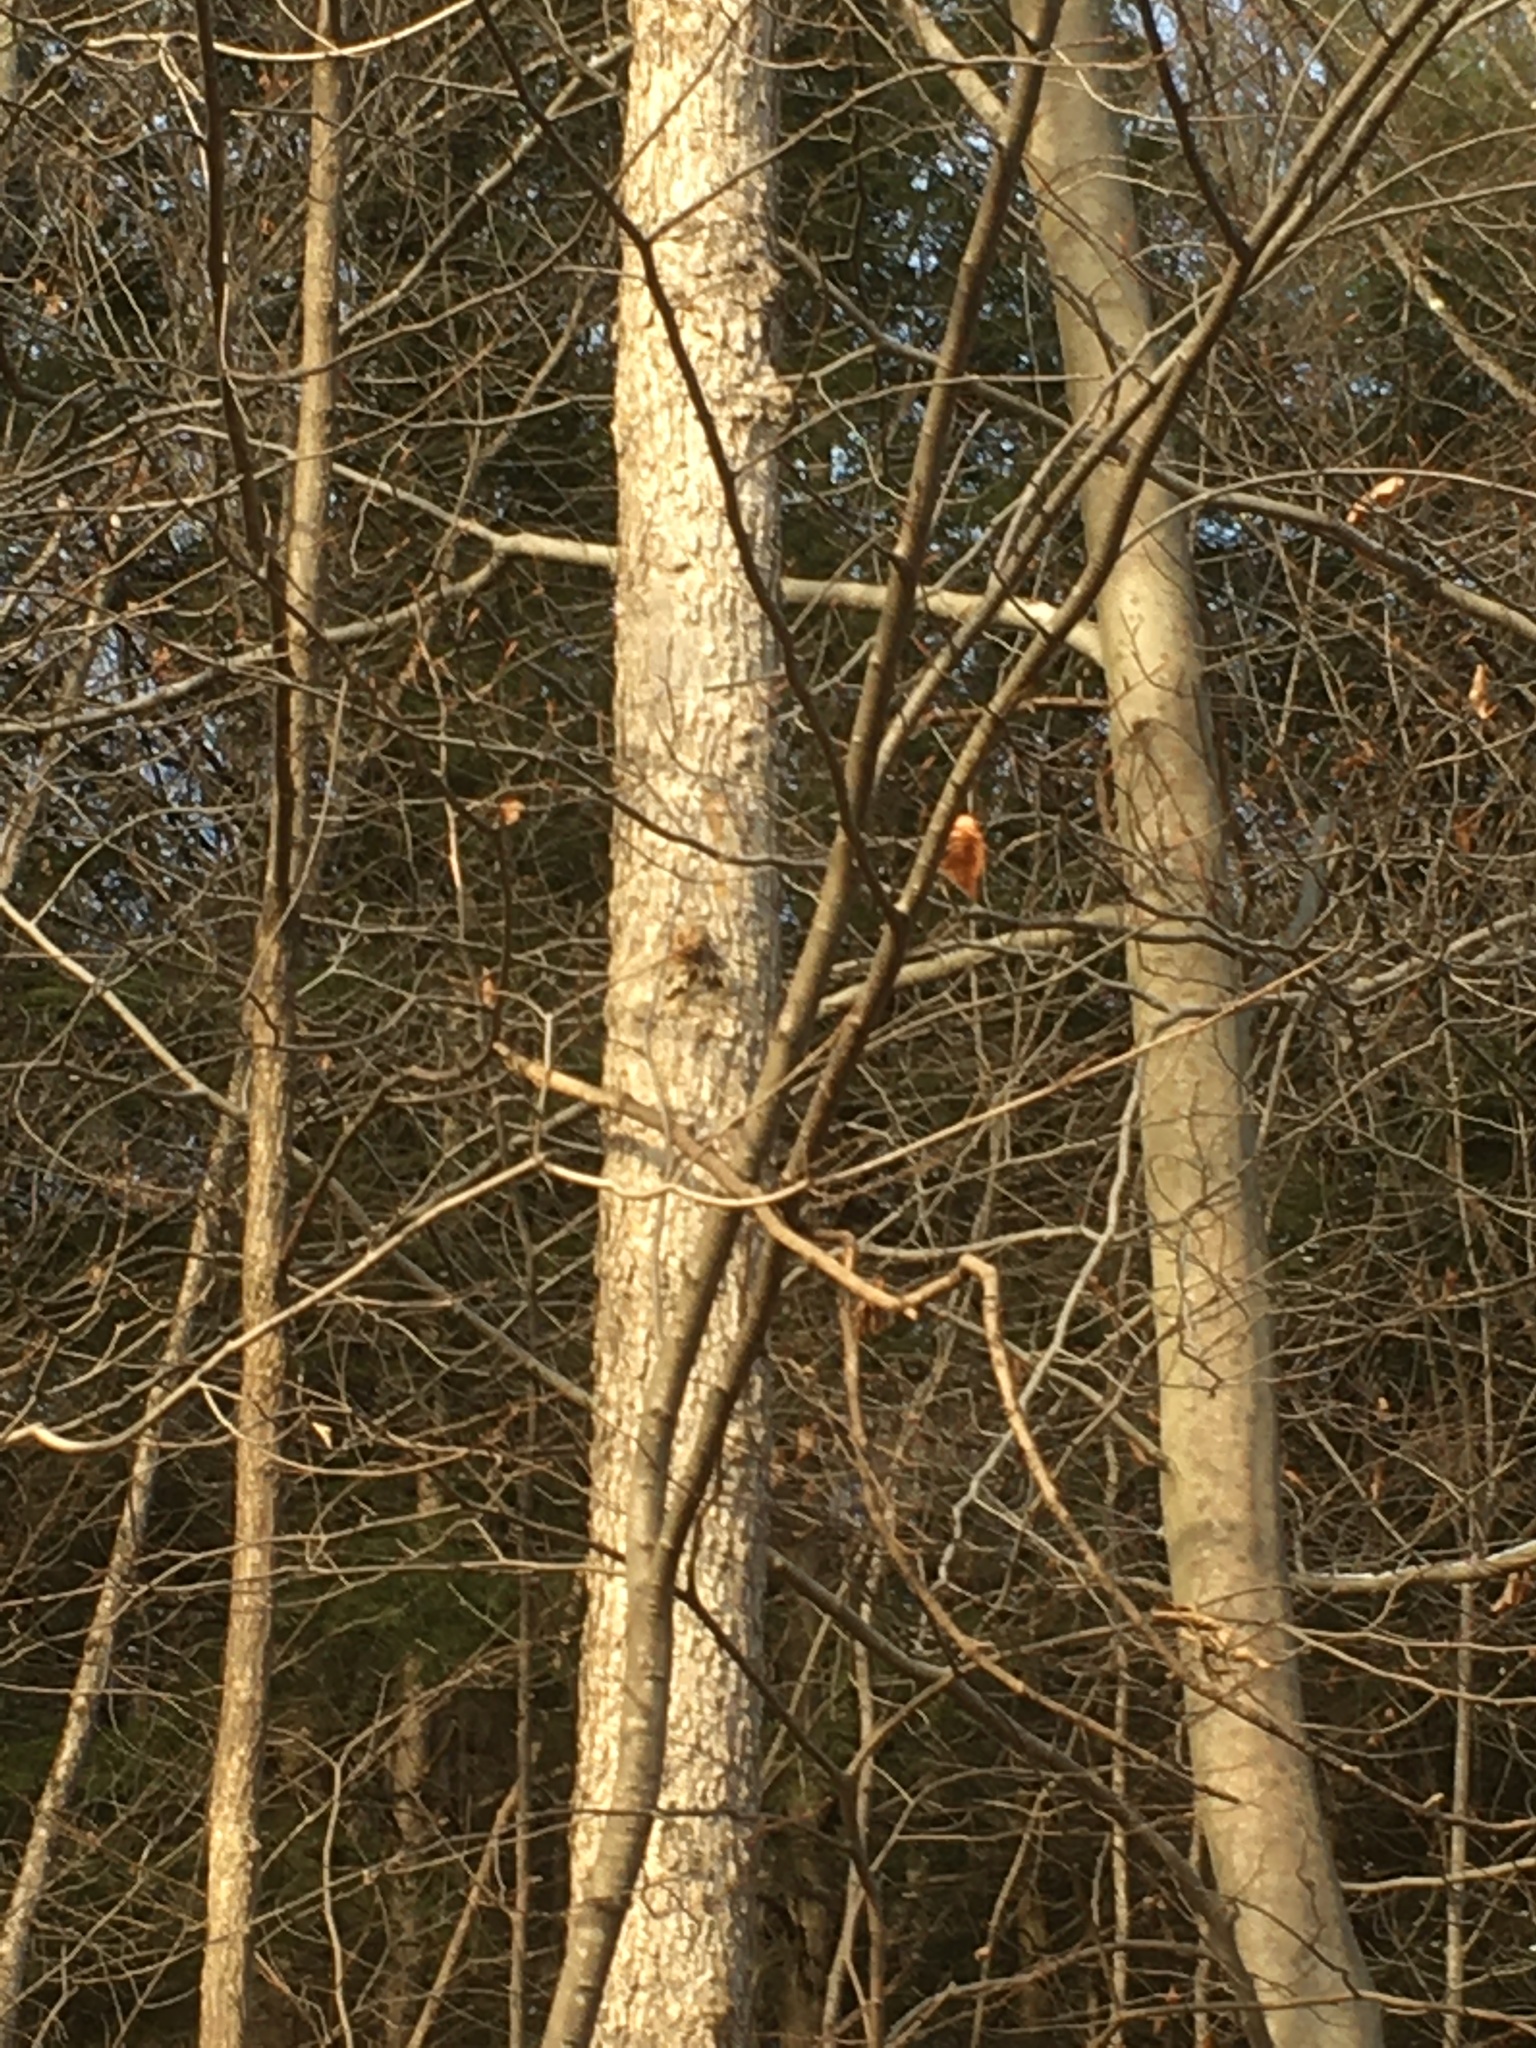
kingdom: Plantae
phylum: Tracheophyta
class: Magnoliopsida
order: Lamiales
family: Oleaceae
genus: Fraxinus
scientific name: Fraxinus nigra
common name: Black ash
